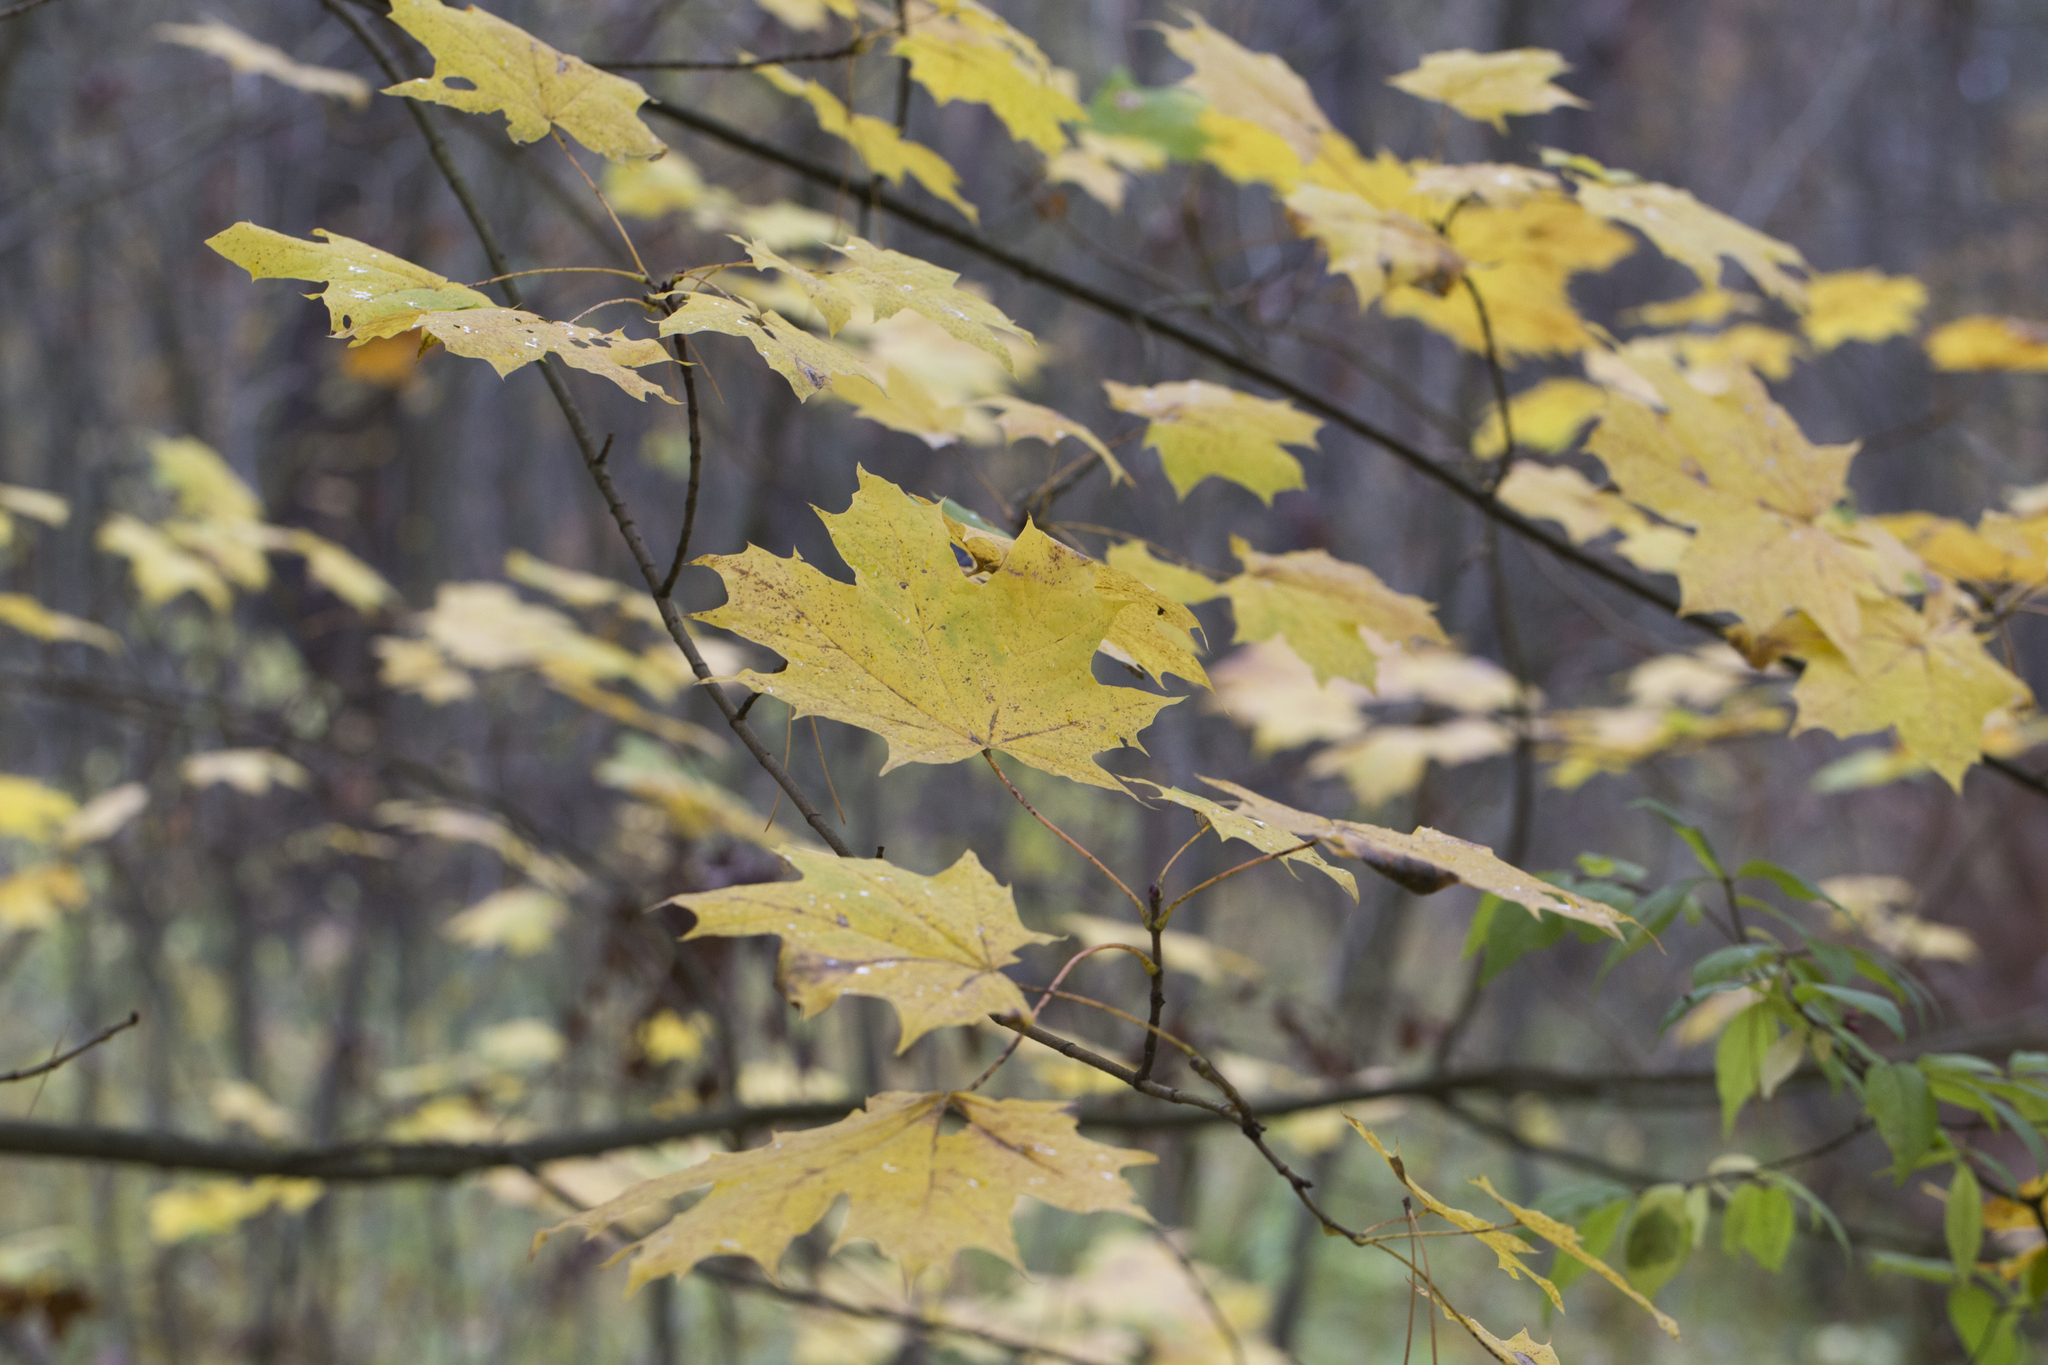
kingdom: Plantae
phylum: Tracheophyta
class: Magnoliopsida
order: Sapindales
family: Sapindaceae
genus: Acer
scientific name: Acer platanoides
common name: Norway maple
